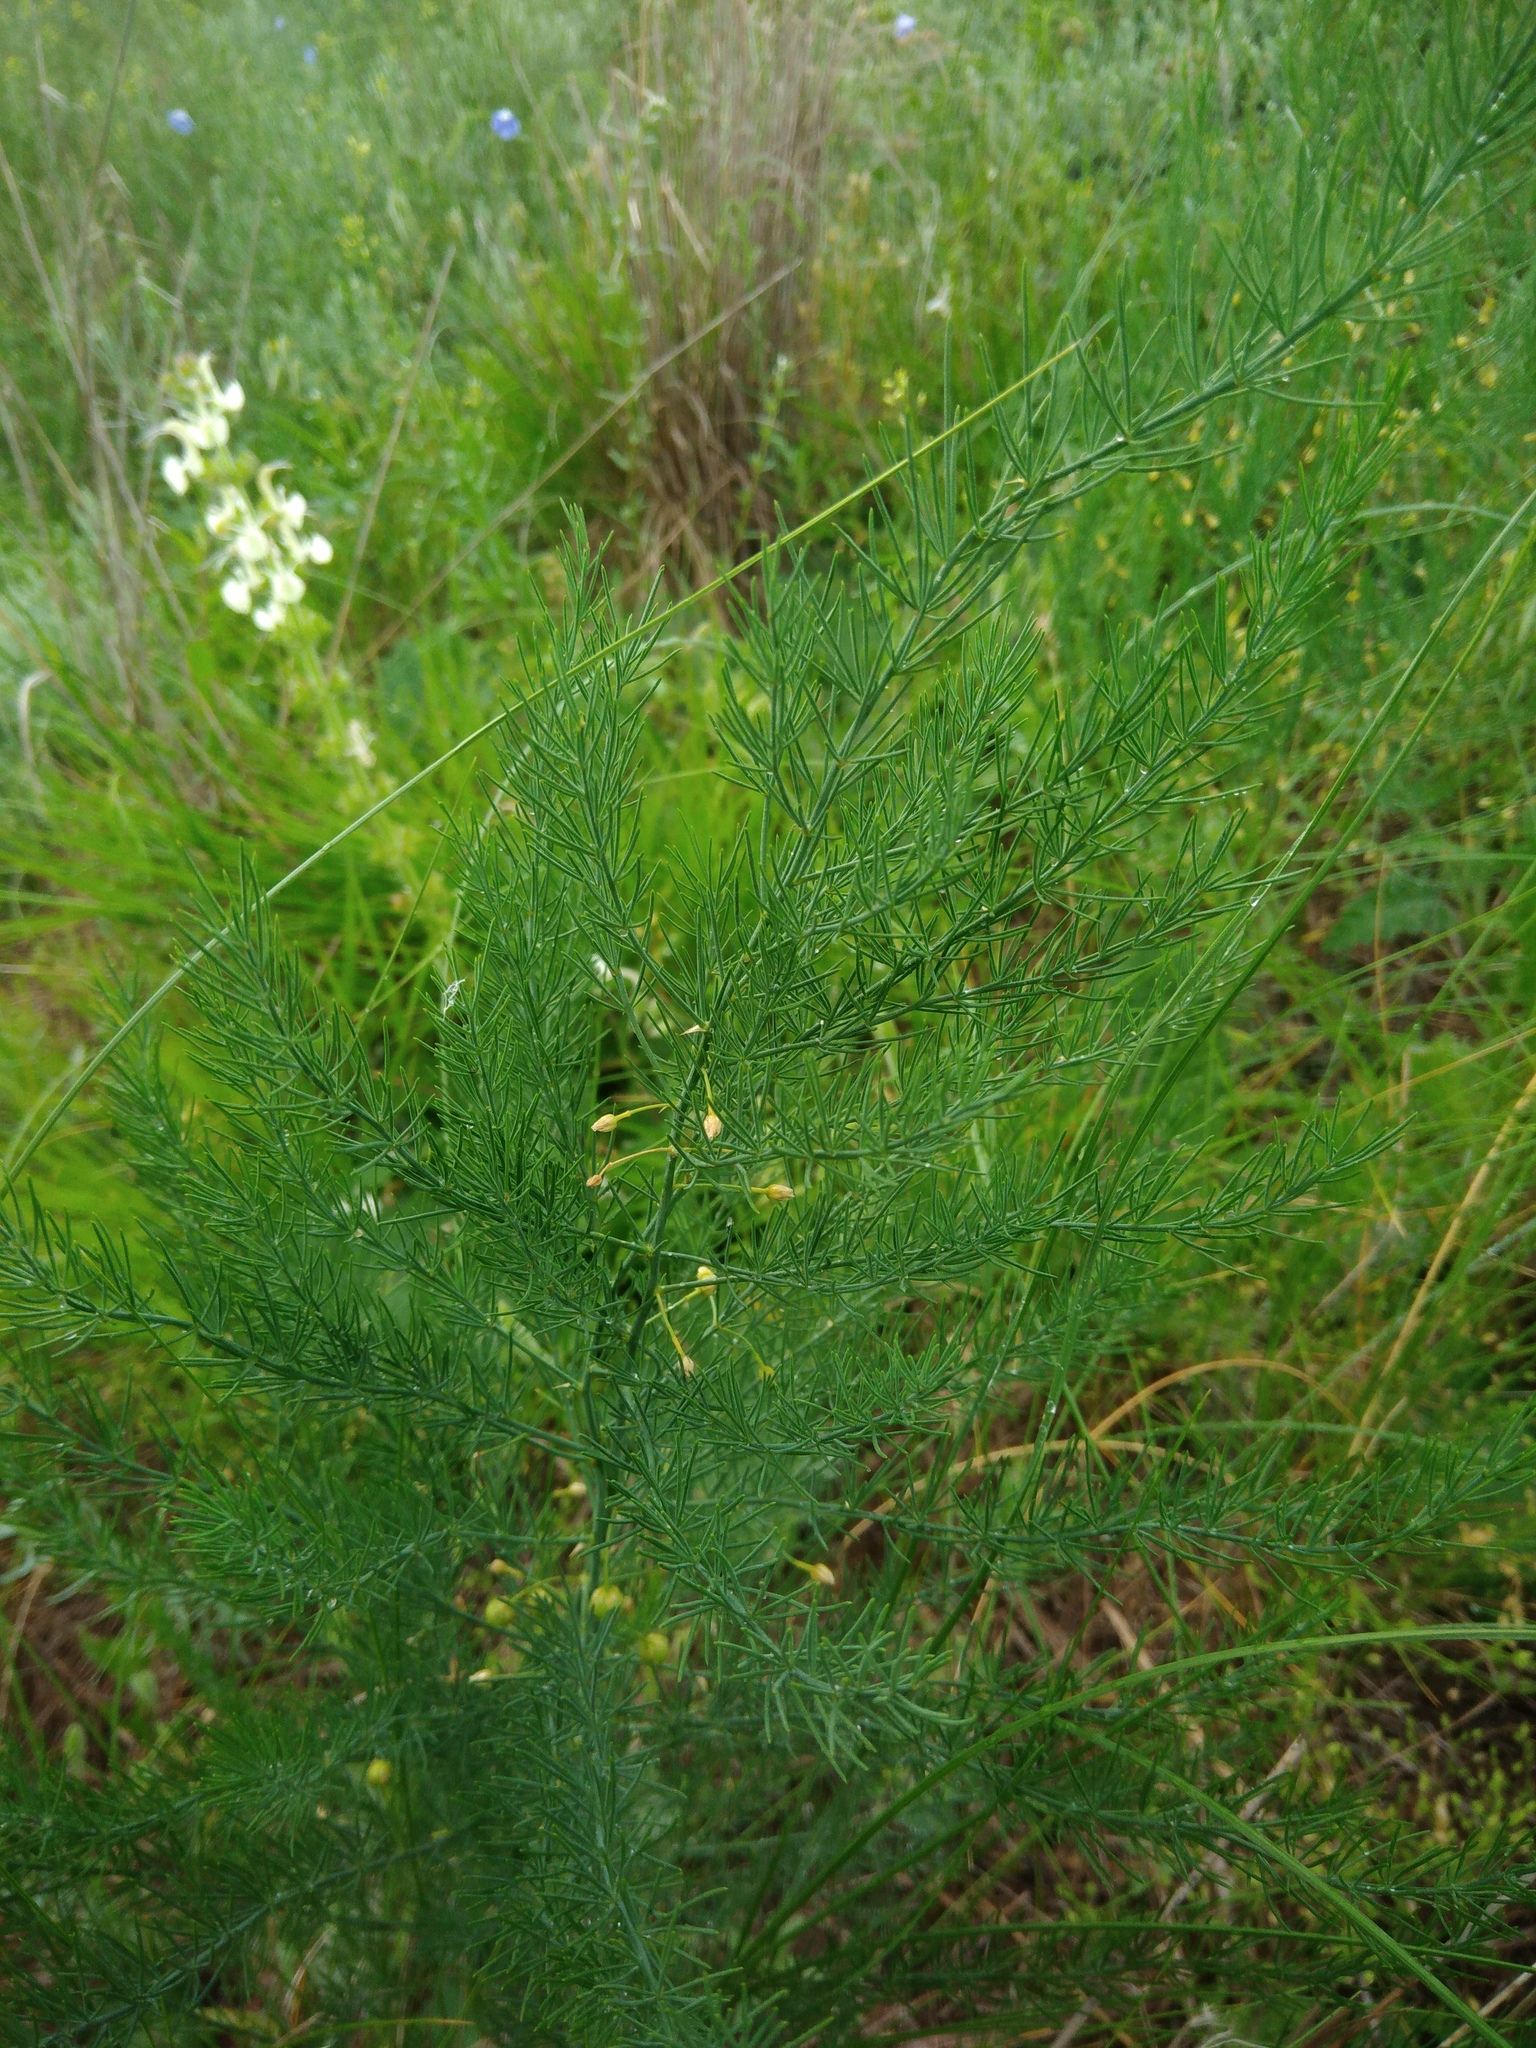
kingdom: Plantae
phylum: Tracheophyta
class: Liliopsida
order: Asparagales
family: Asparagaceae
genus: Asparagus
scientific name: Asparagus officinalis
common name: Garden asparagus
